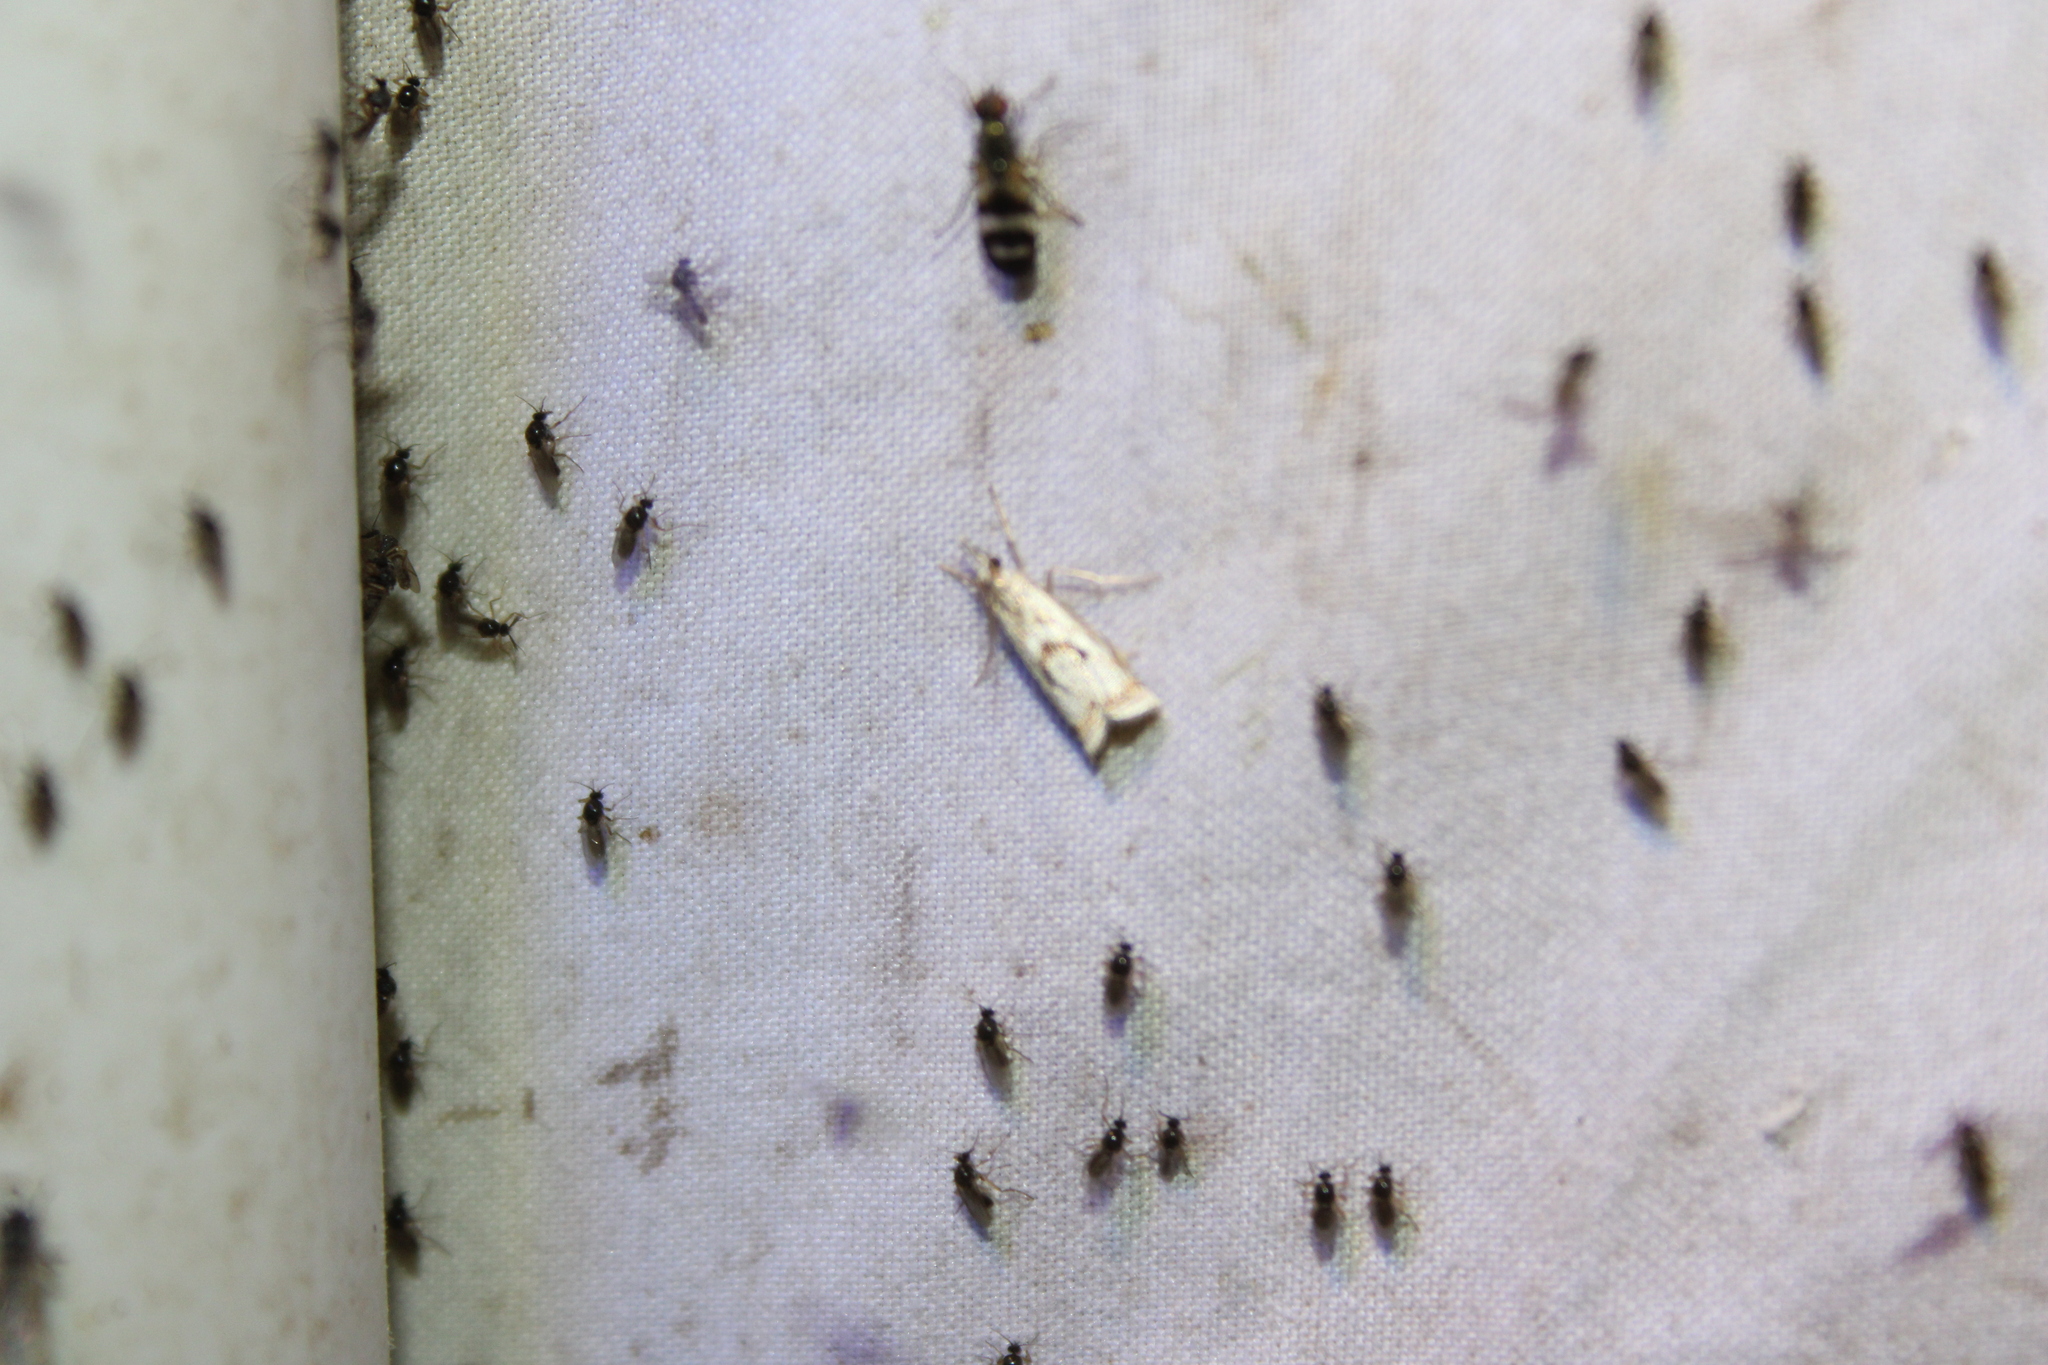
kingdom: Animalia
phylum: Arthropoda
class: Insecta
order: Lepidoptera
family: Crambidae
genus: Microcrambus
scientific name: Microcrambus elegans
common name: Elegant grass-veneer
